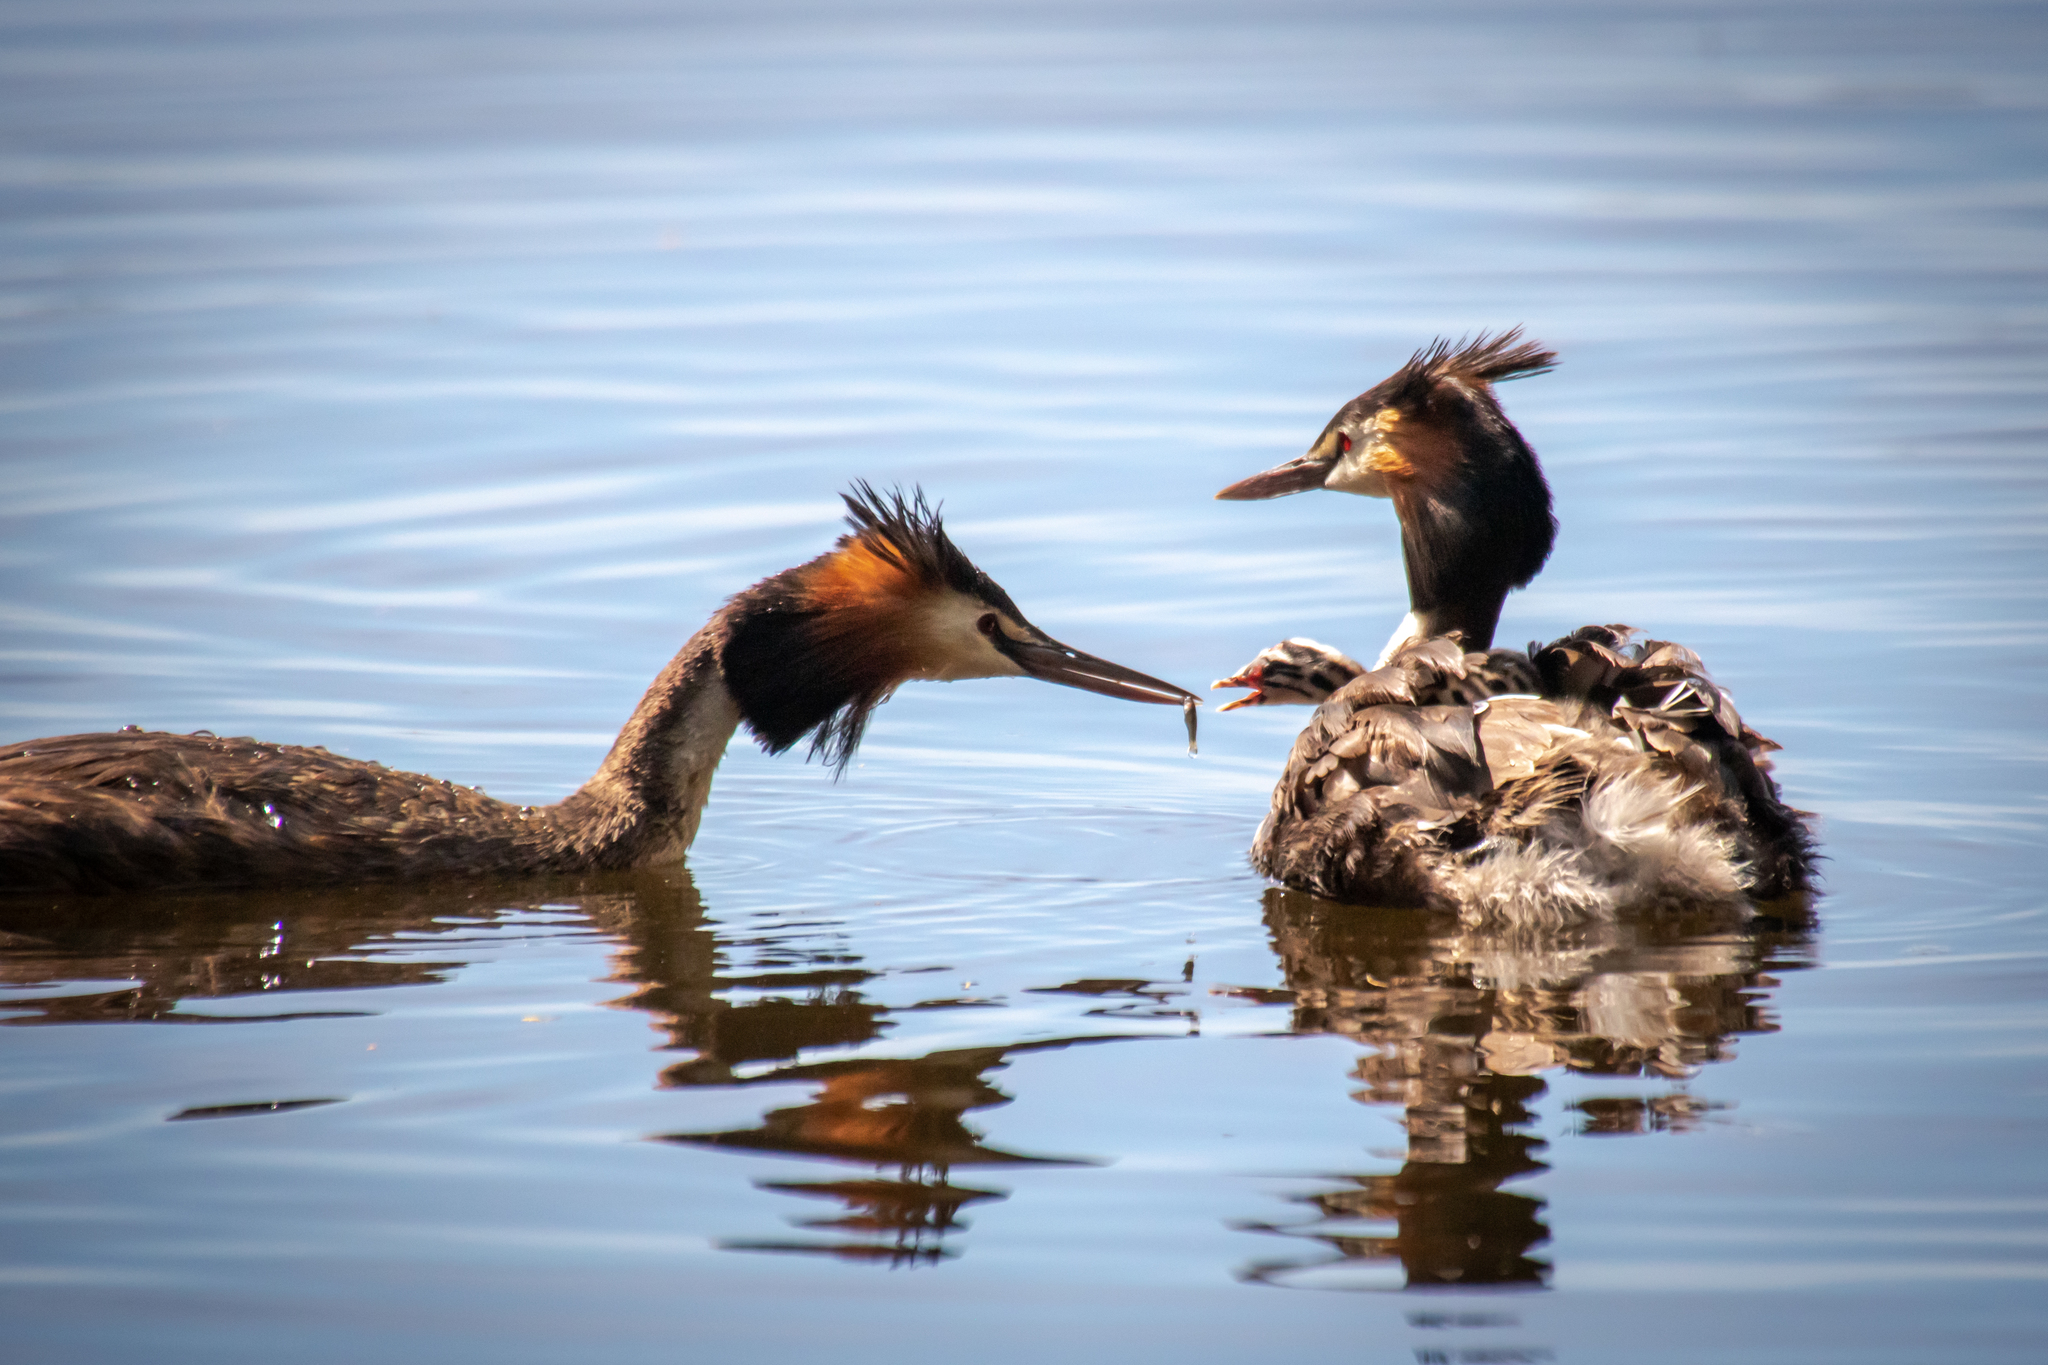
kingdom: Animalia
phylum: Chordata
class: Aves
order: Podicipediformes
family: Podicipedidae
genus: Podiceps
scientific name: Podiceps cristatus
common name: Great crested grebe
